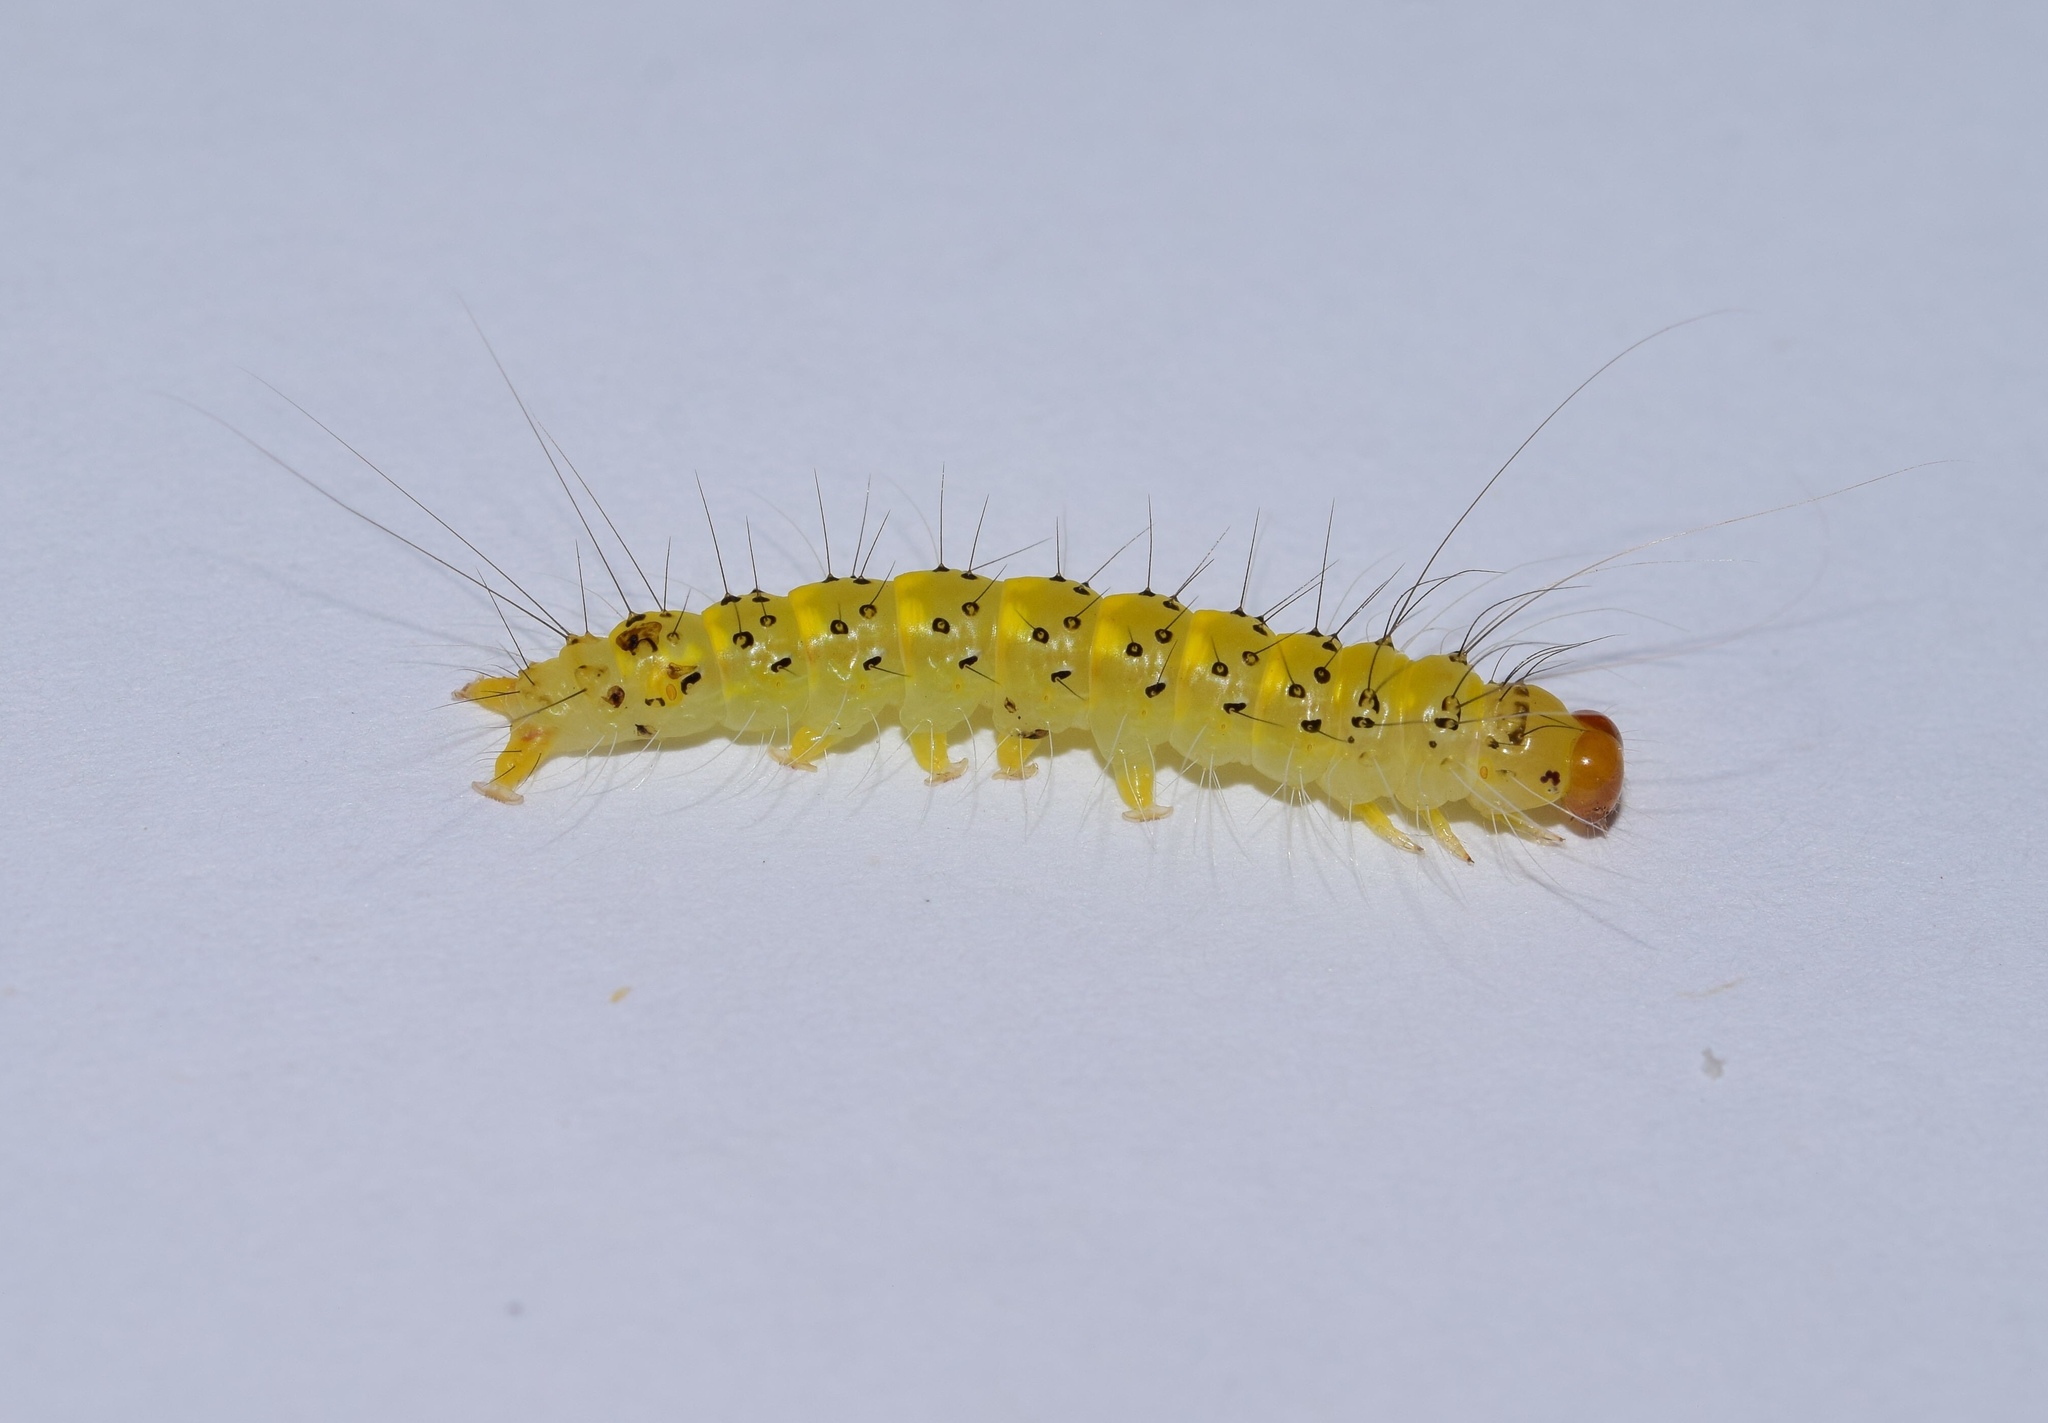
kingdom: Animalia
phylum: Arthropoda
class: Insecta
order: Lepidoptera
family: Erebidae
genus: Amerila
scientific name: Amerila bubo
